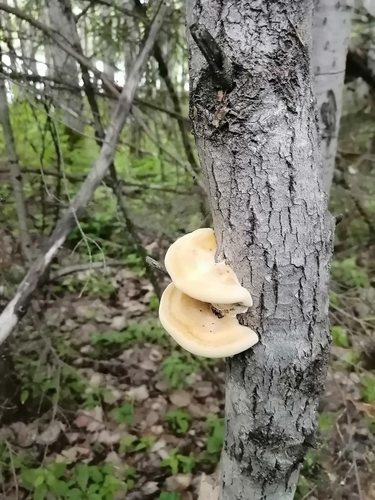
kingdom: Fungi
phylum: Basidiomycota
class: Agaricomycetes
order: Hymenochaetales
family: Hymenochaetaceae
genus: Inocutis
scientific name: Inocutis rheades
